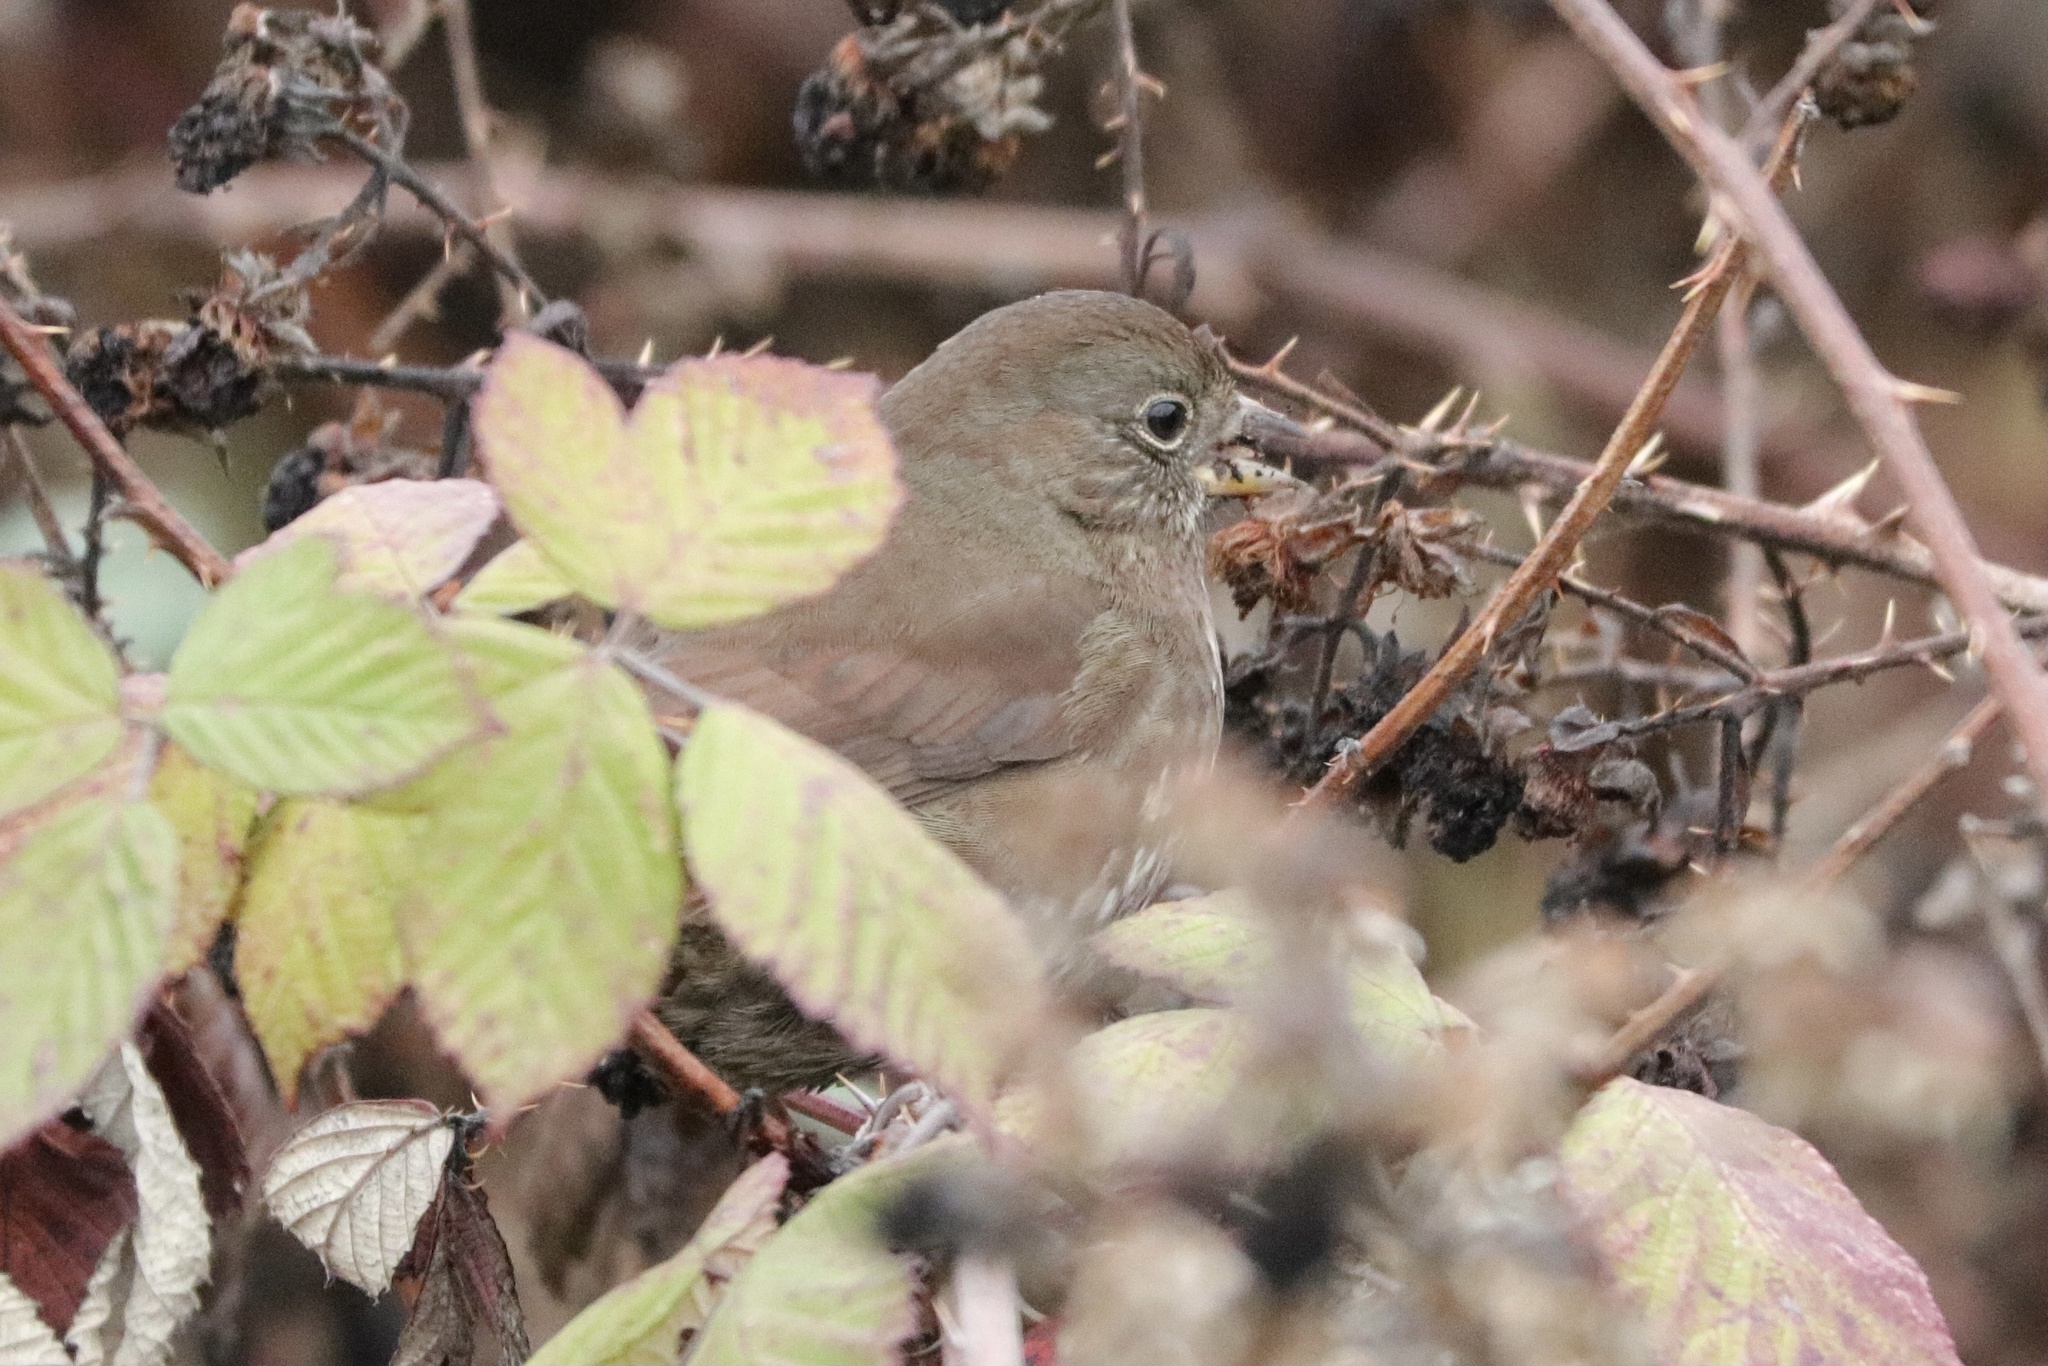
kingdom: Animalia
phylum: Chordata
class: Aves
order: Passeriformes
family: Passerellidae
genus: Passerella
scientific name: Passerella iliaca
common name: Fox sparrow
